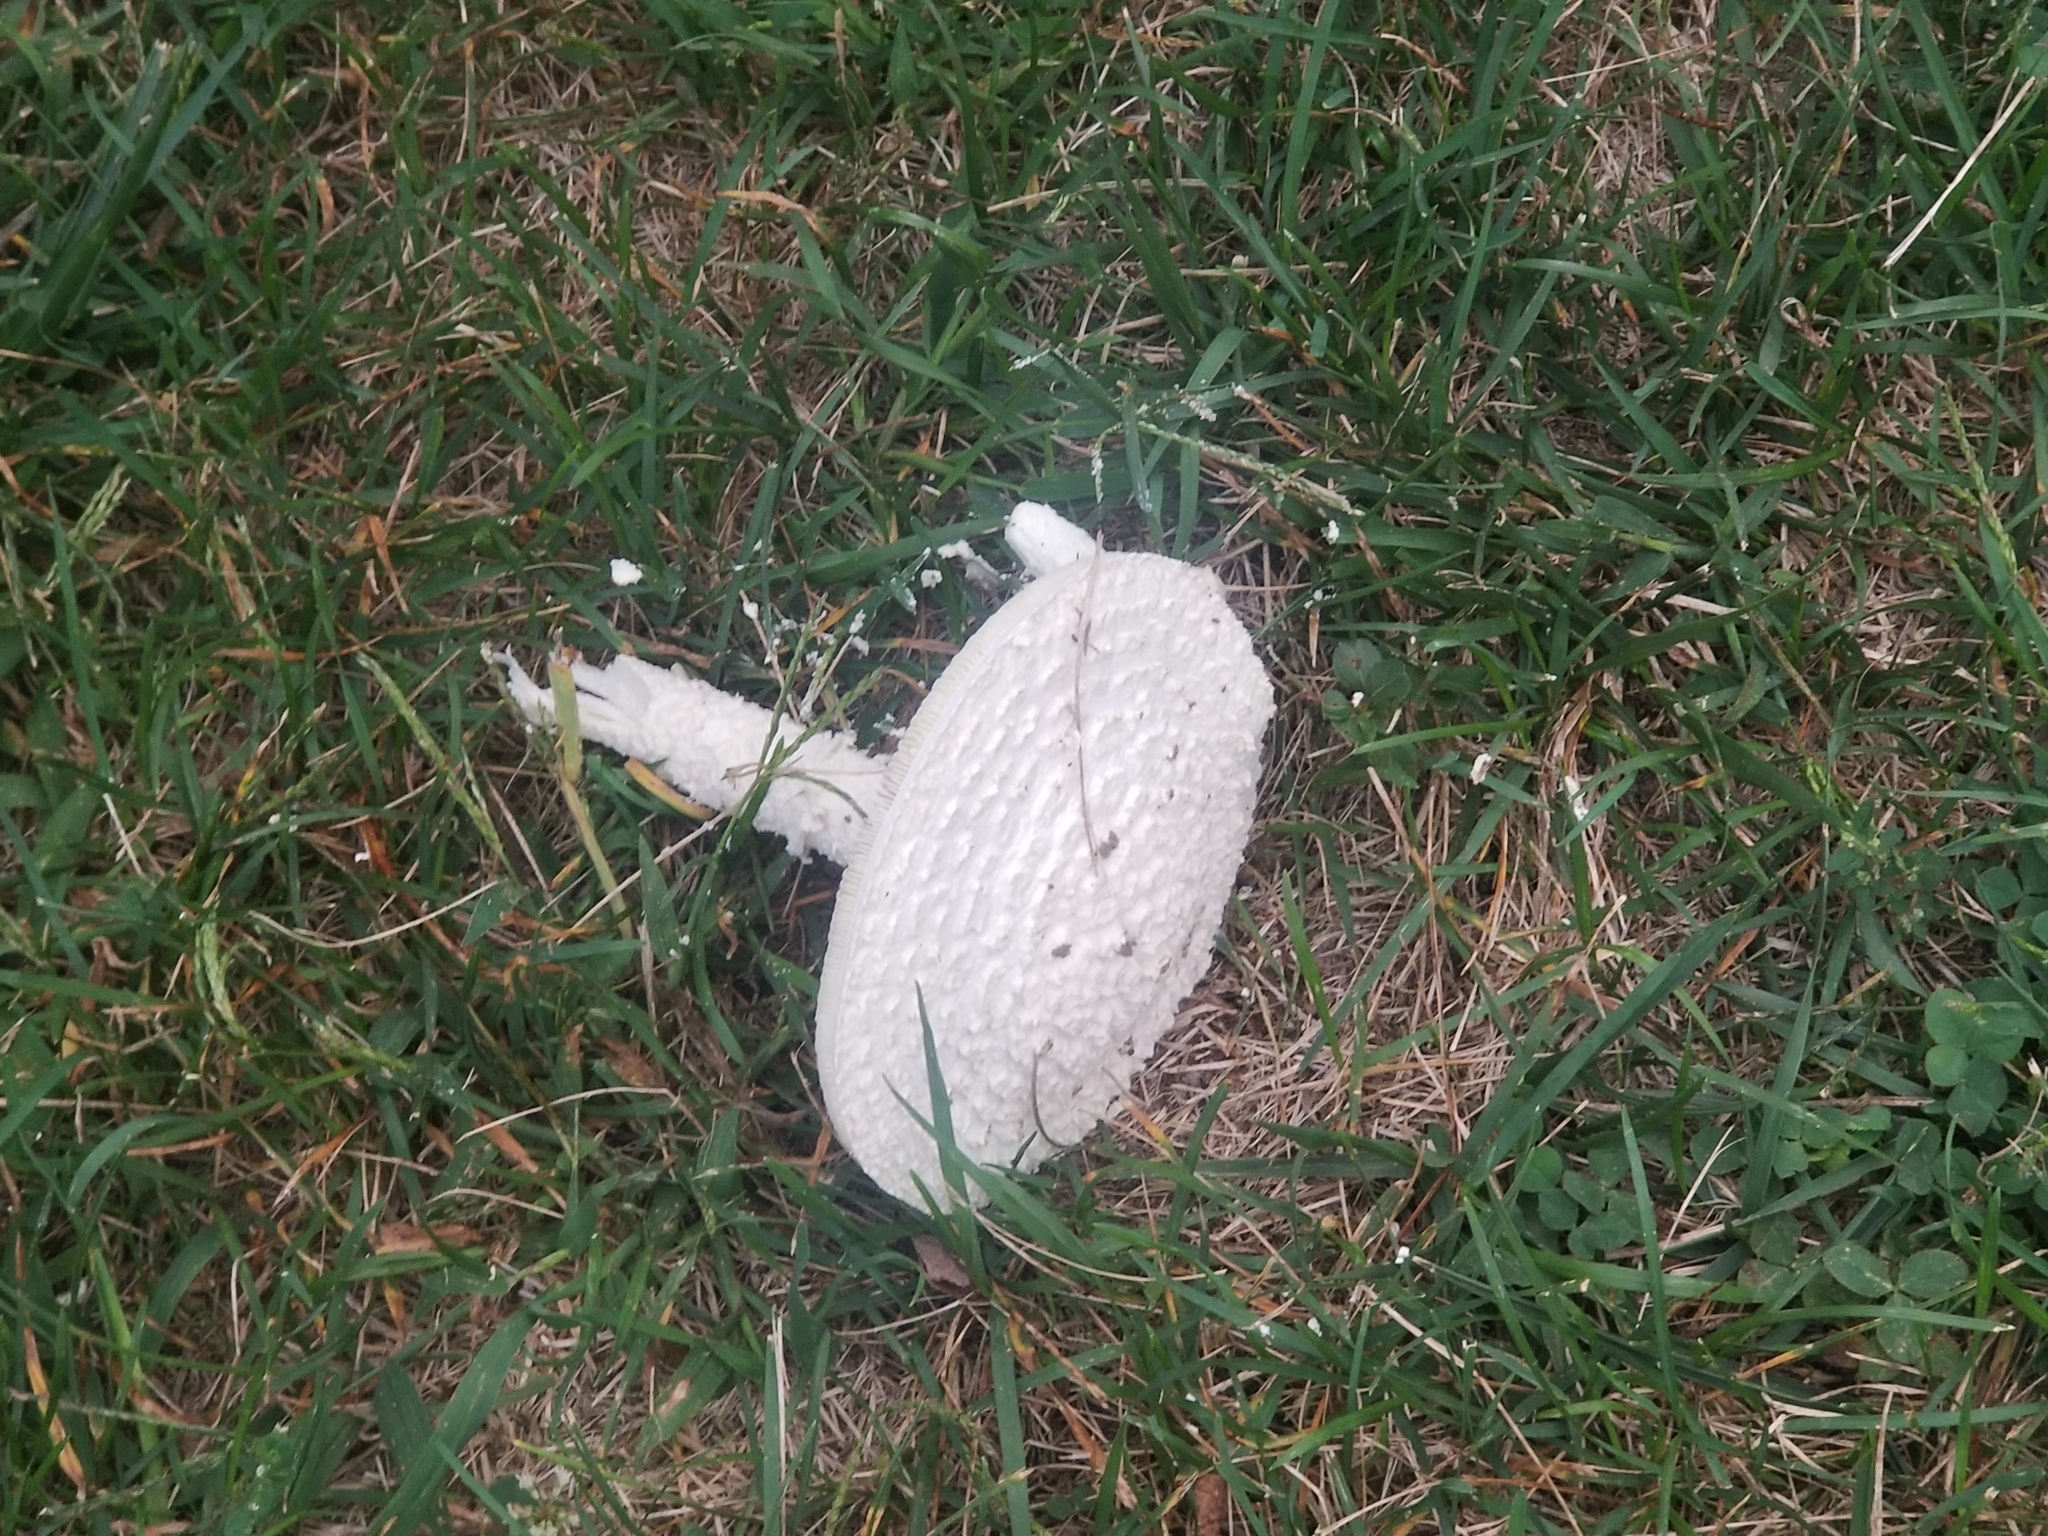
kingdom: Fungi
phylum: Basidiomycota
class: Agaricomycetes
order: Agaricales
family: Amanitaceae
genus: Amanita
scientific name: Amanita thiersii
